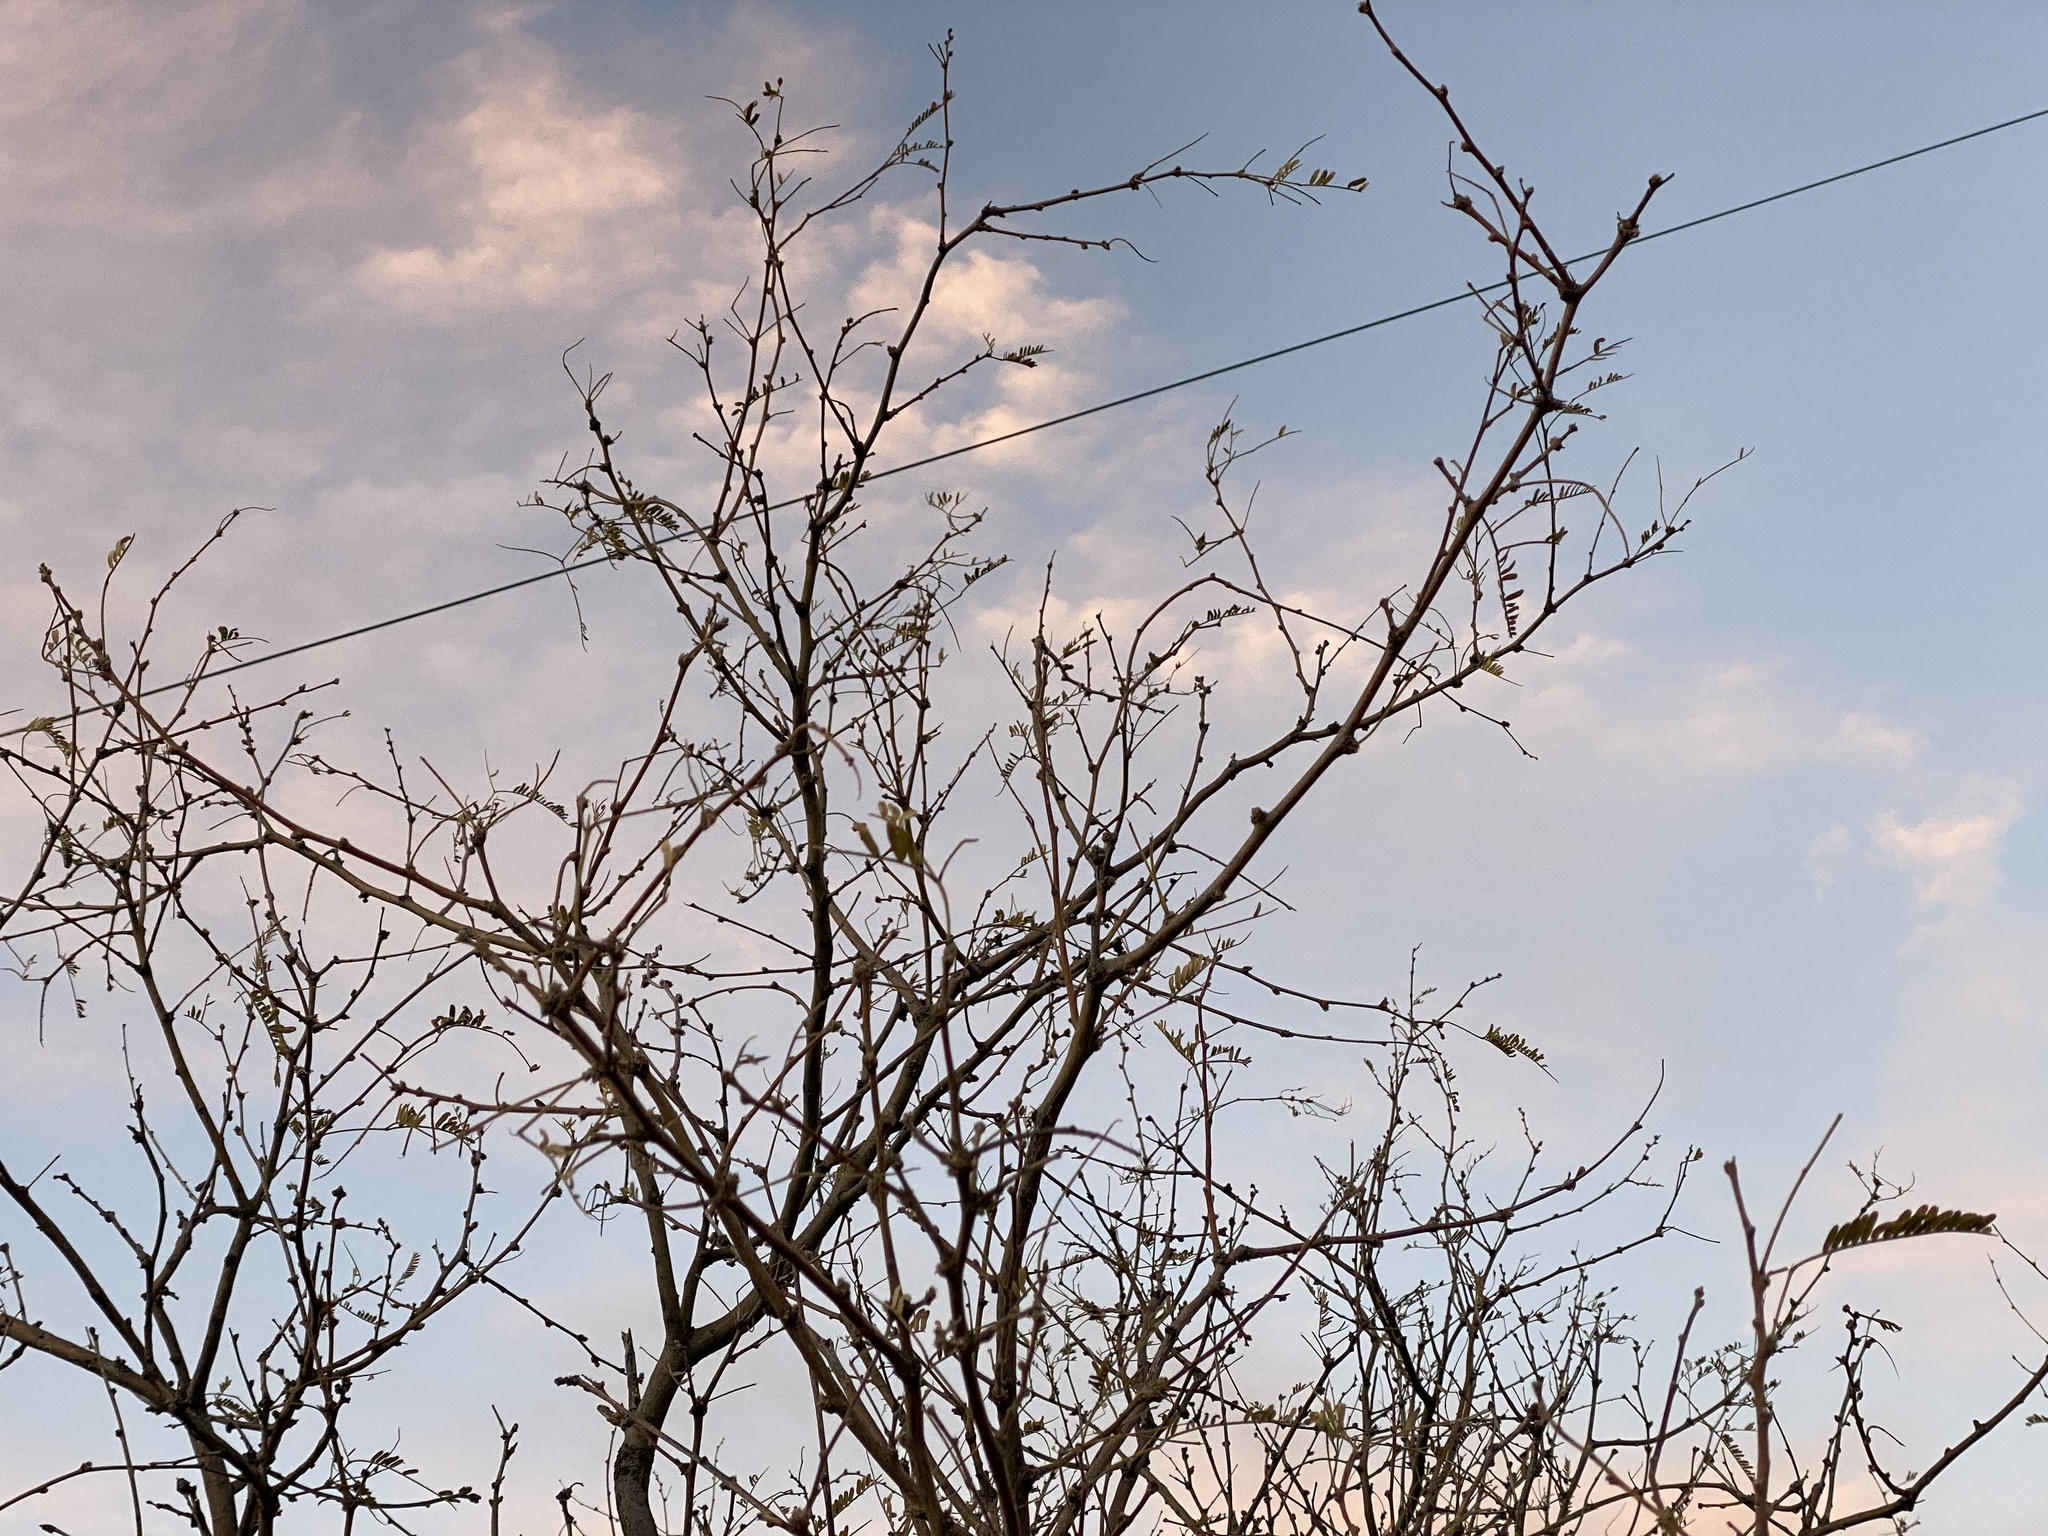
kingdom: Plantae
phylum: Tracheophyta
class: Magnoliopsida
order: Fabales
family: Fabaceae
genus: Prosopis
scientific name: Prosopis velutina
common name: Velvet mesquite
